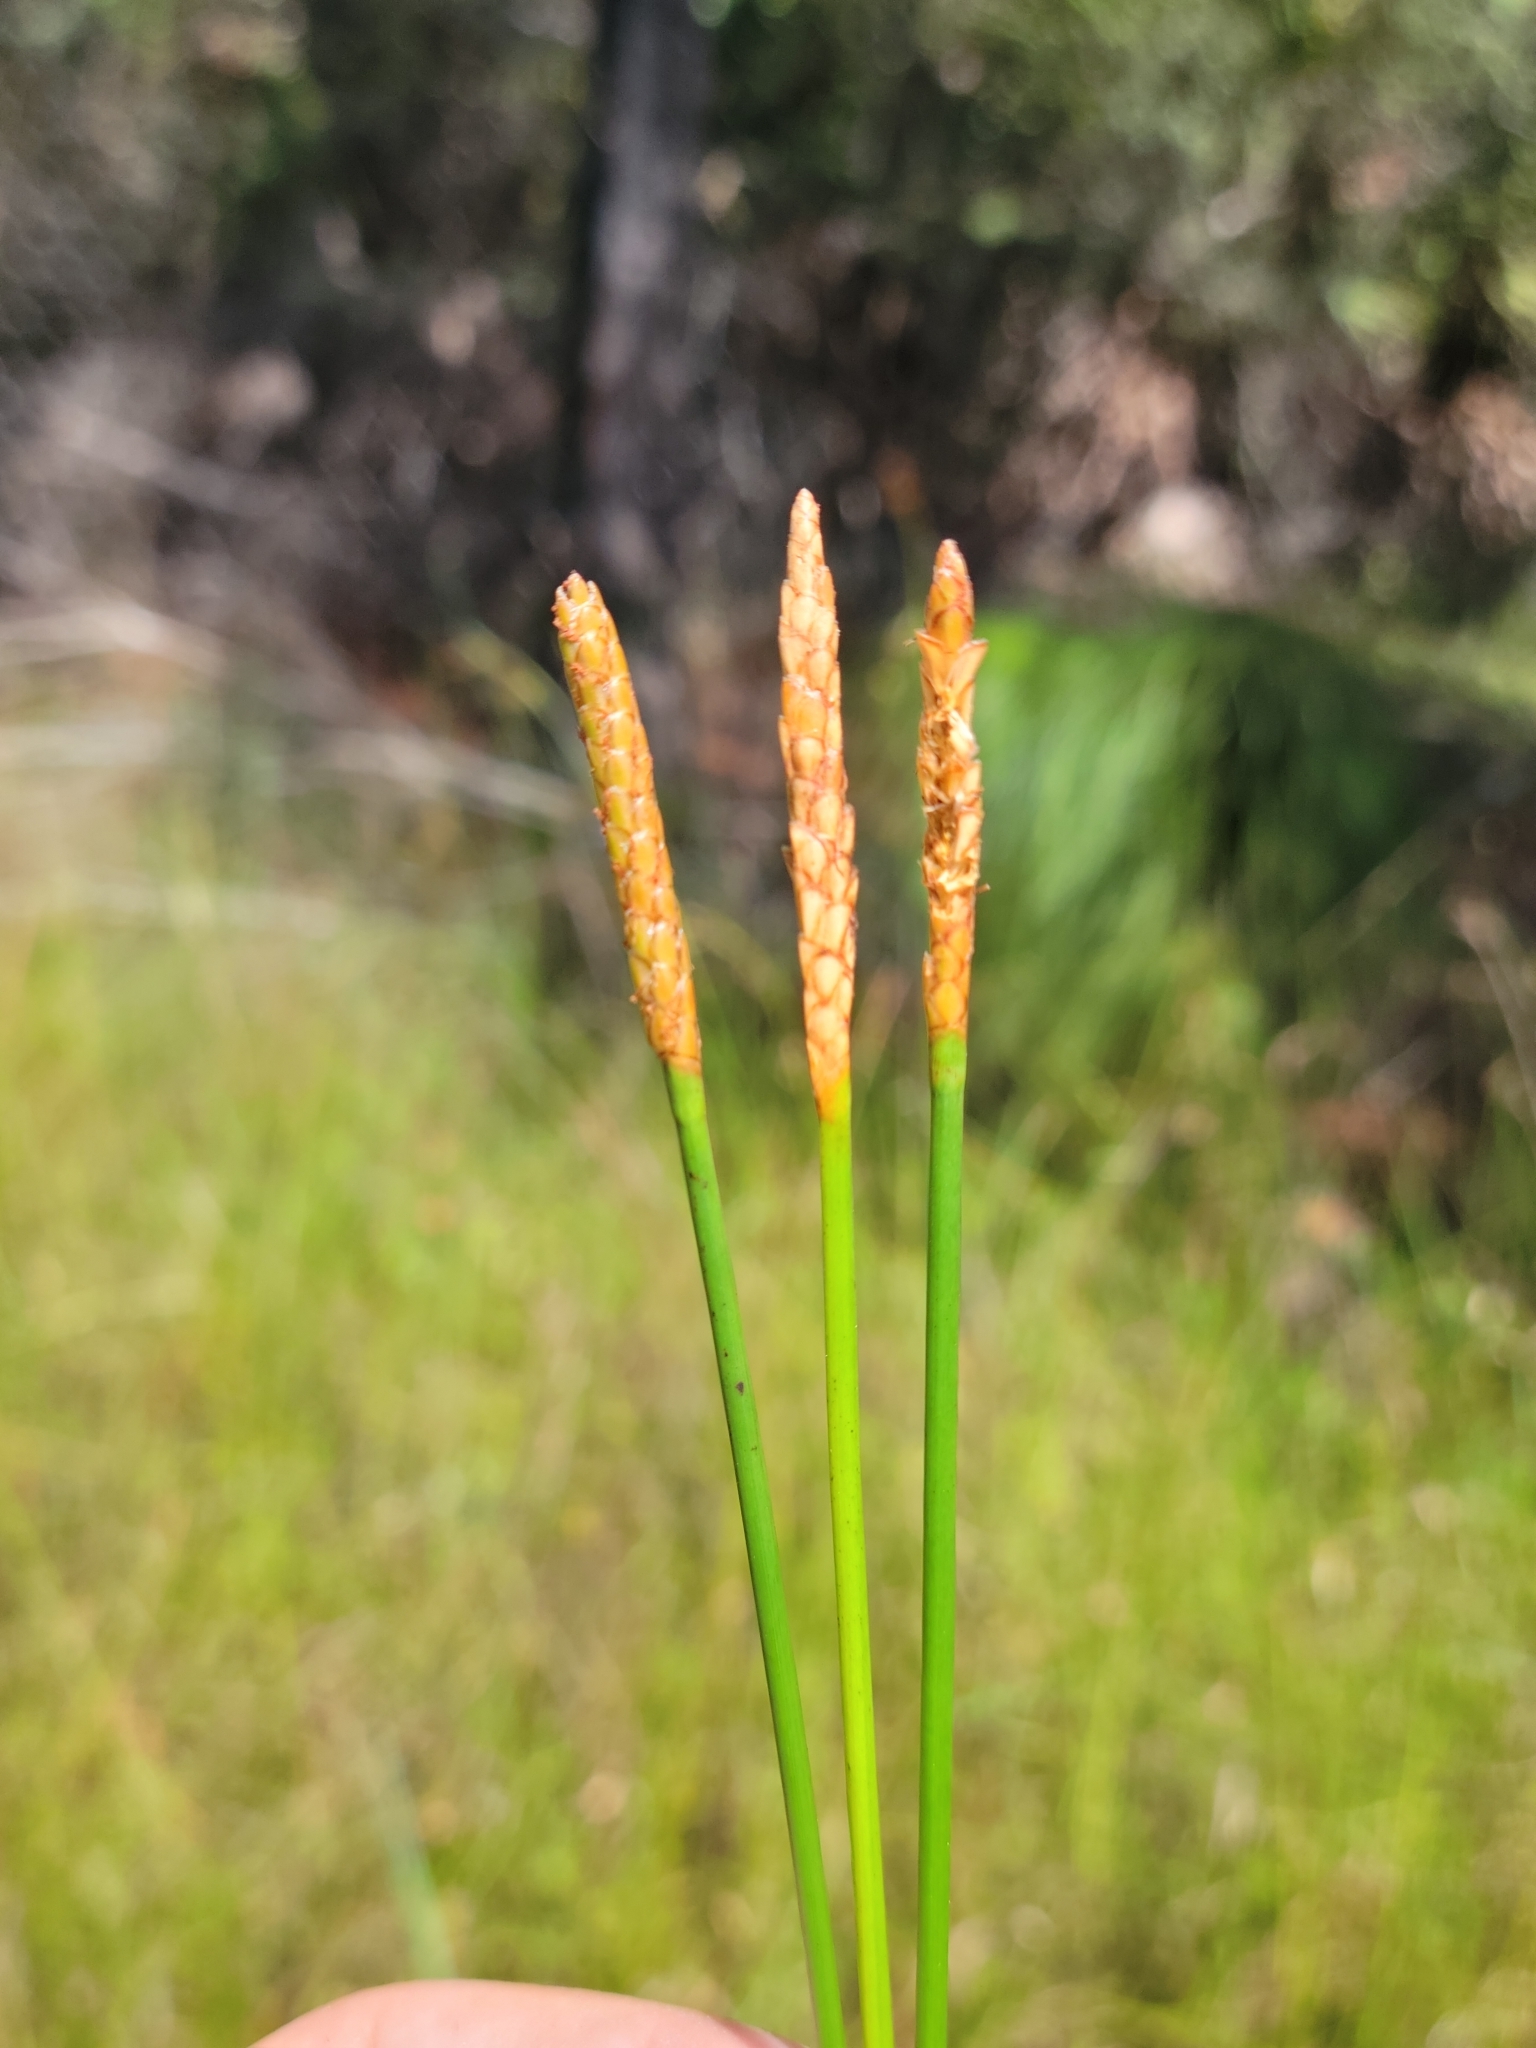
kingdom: Plantae
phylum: Tracheophyta
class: Liliopsida
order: Poales
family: Cyperaceae
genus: Eleocharis
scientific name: Eleocharis cellulosa
